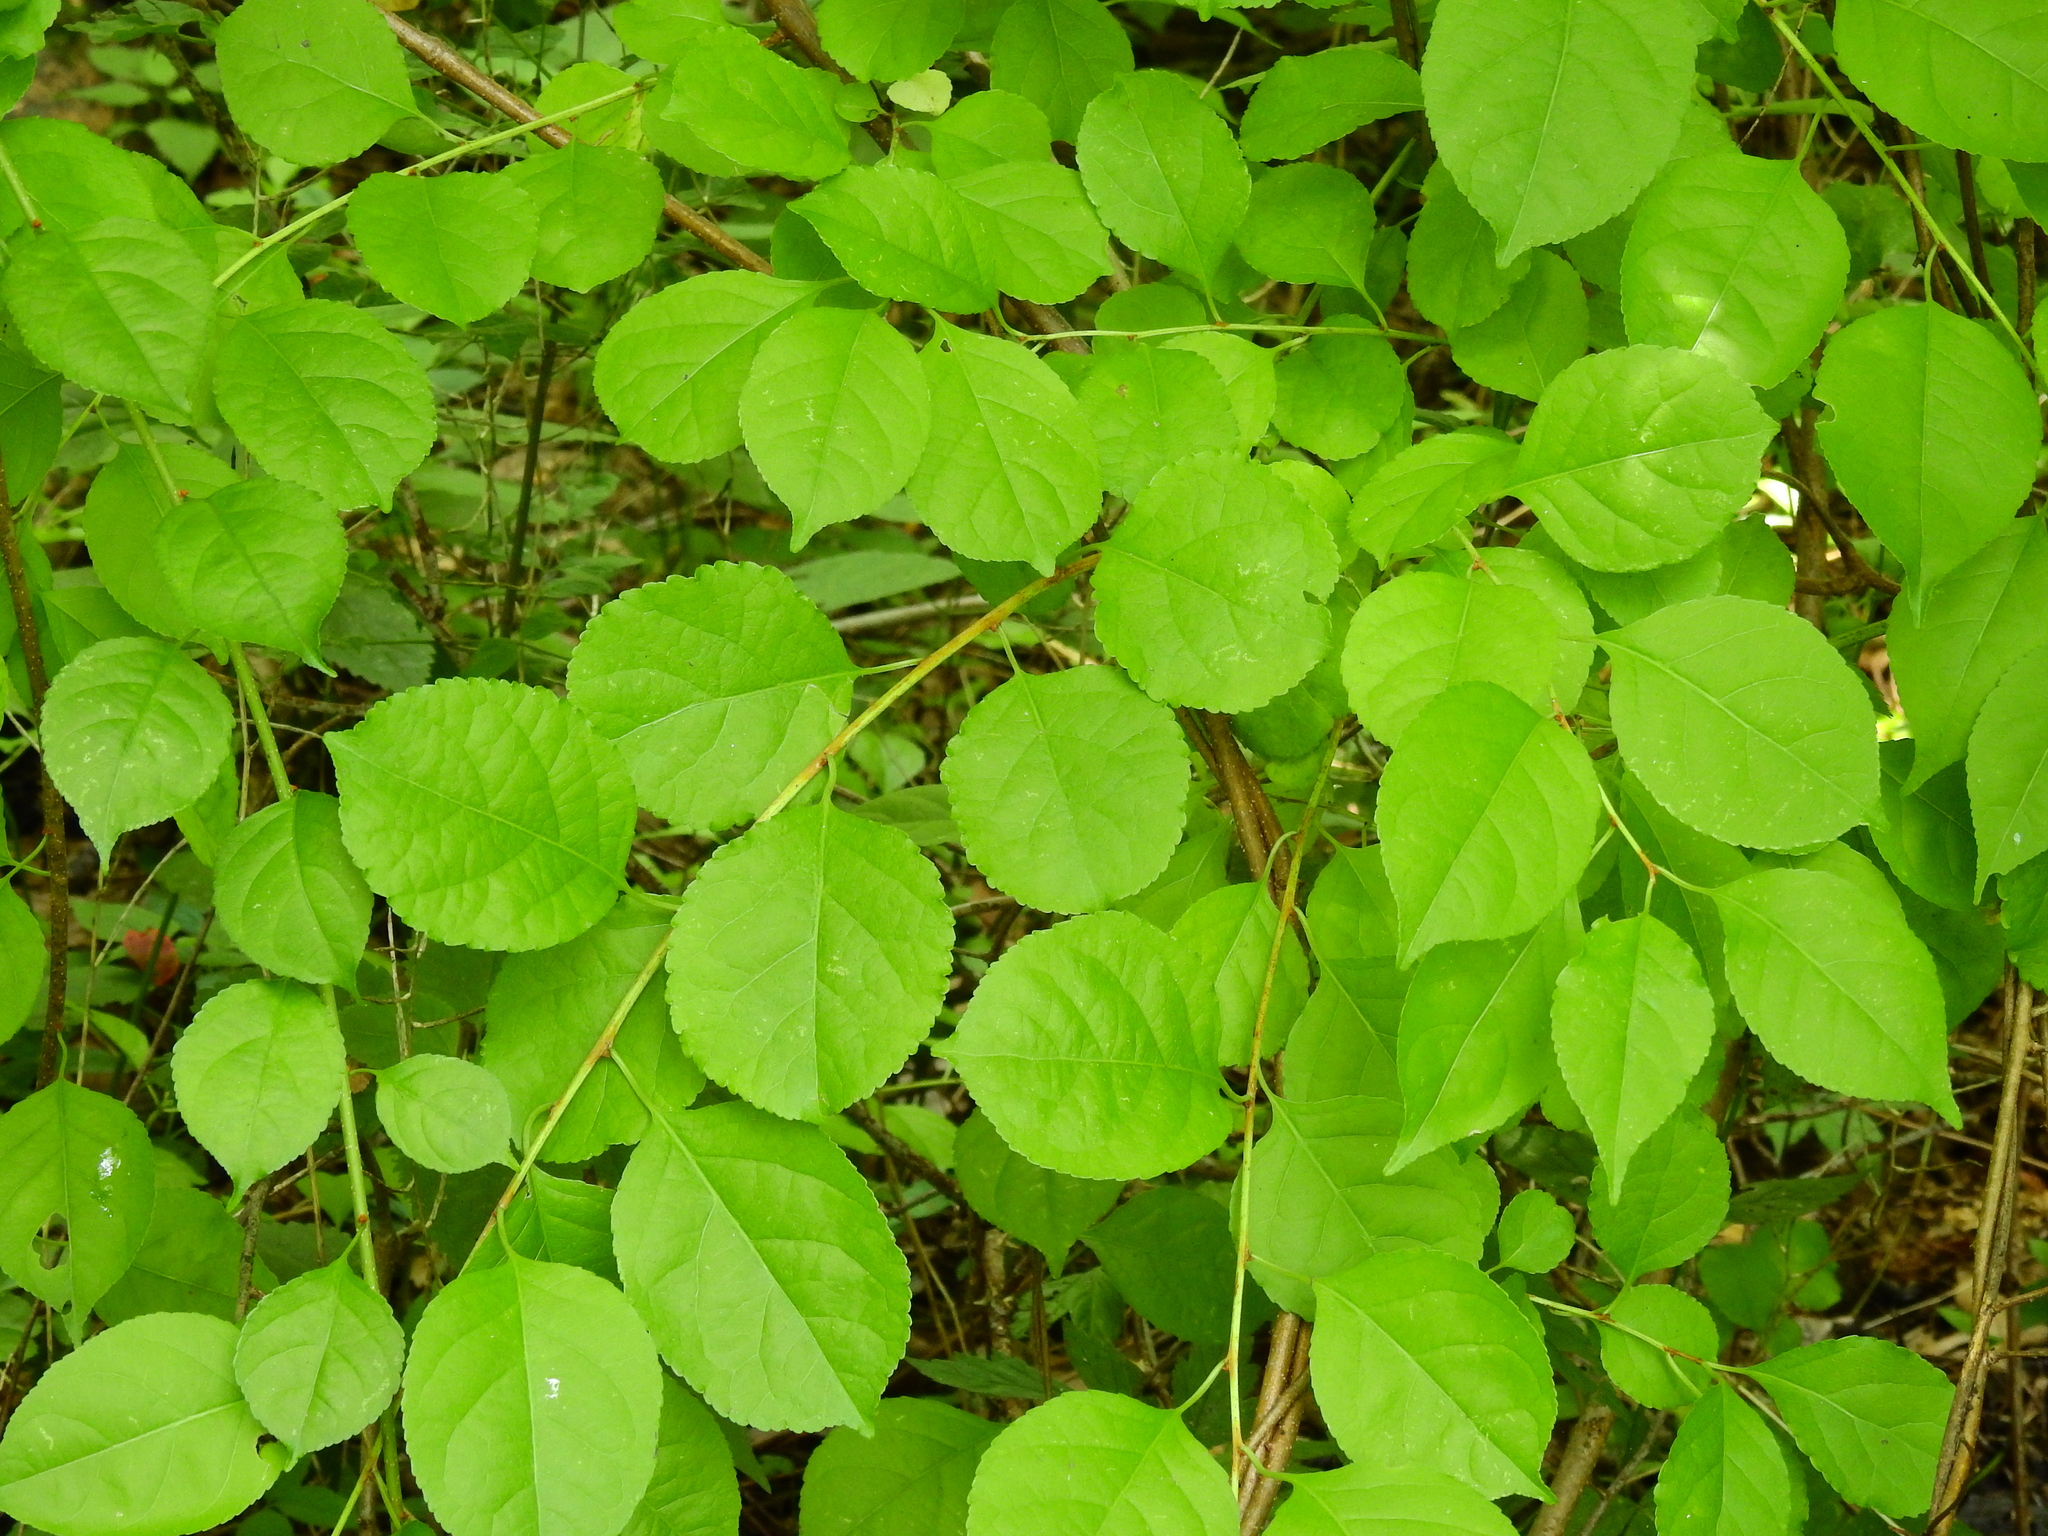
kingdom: Plantae
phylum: Tracheophyta
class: Magnoliopsida
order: Celastrales
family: Celastraceae
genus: Celastrus
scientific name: Celastrus orbiculatus
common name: Oriental bittersweet
